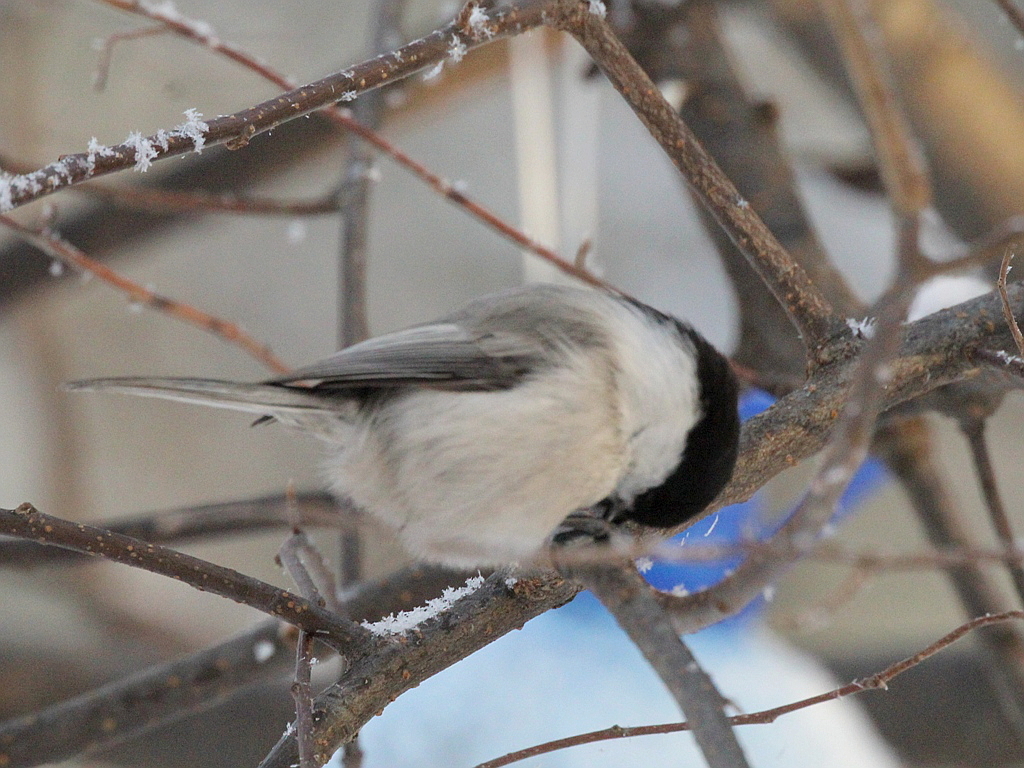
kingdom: Animalia
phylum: Chordata
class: Aves
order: Passeriformes
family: Paridae
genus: Poecile
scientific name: Poecile montanus
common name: Willow tit
